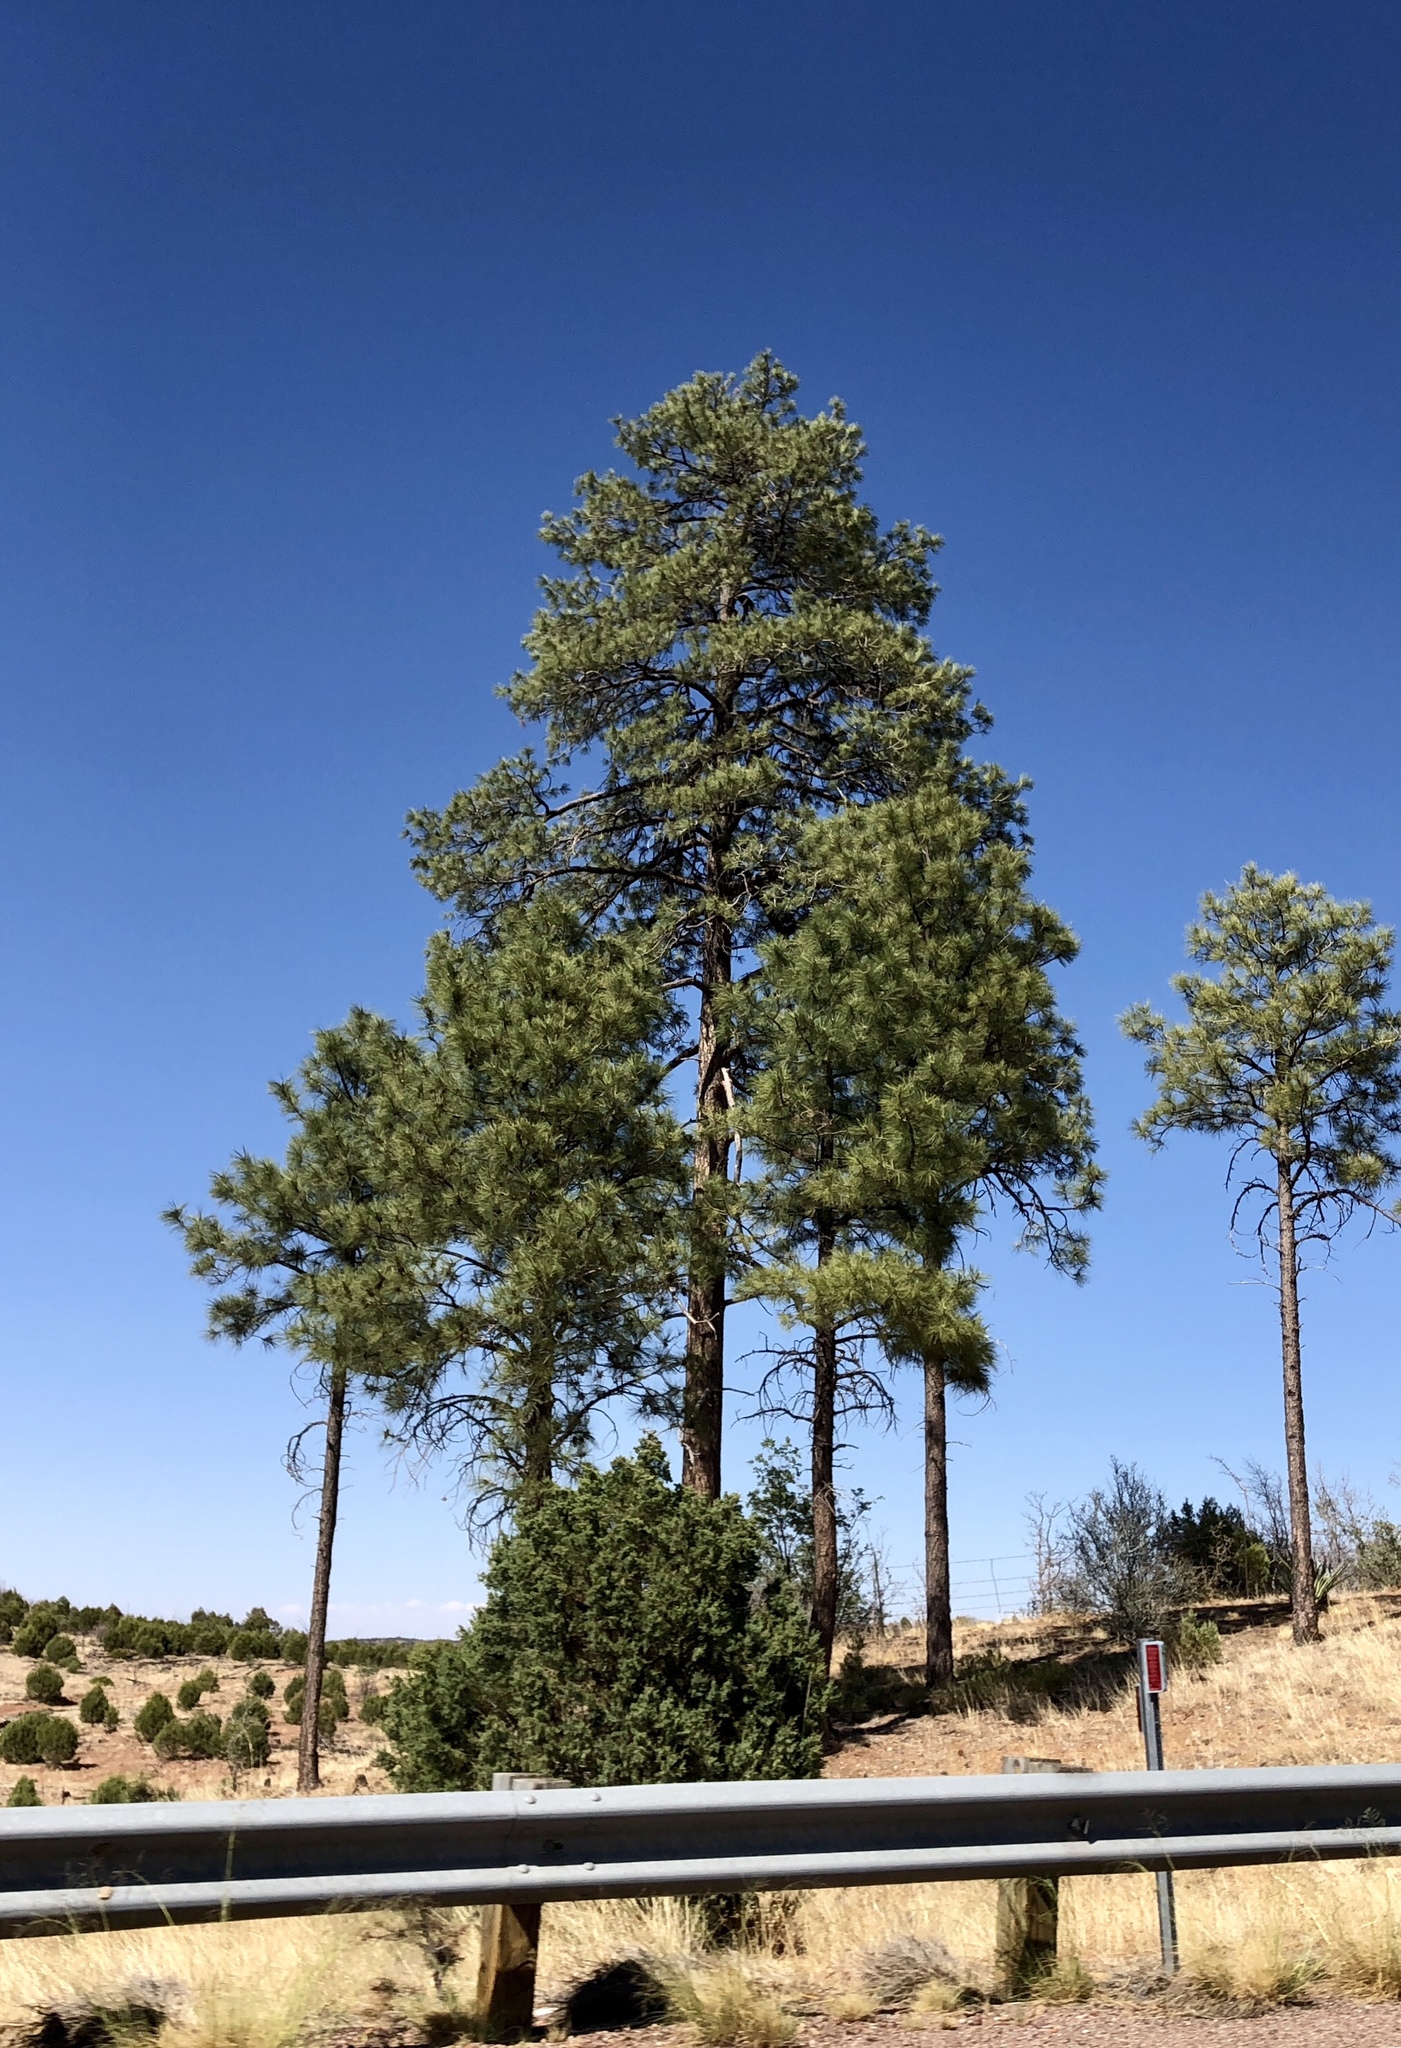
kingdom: Plantae
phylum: Tracheophyta
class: Pinopsida
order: Pinales
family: Pinaceae
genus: Pinus
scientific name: Pinus ponderosa
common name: Western yellow-pine
